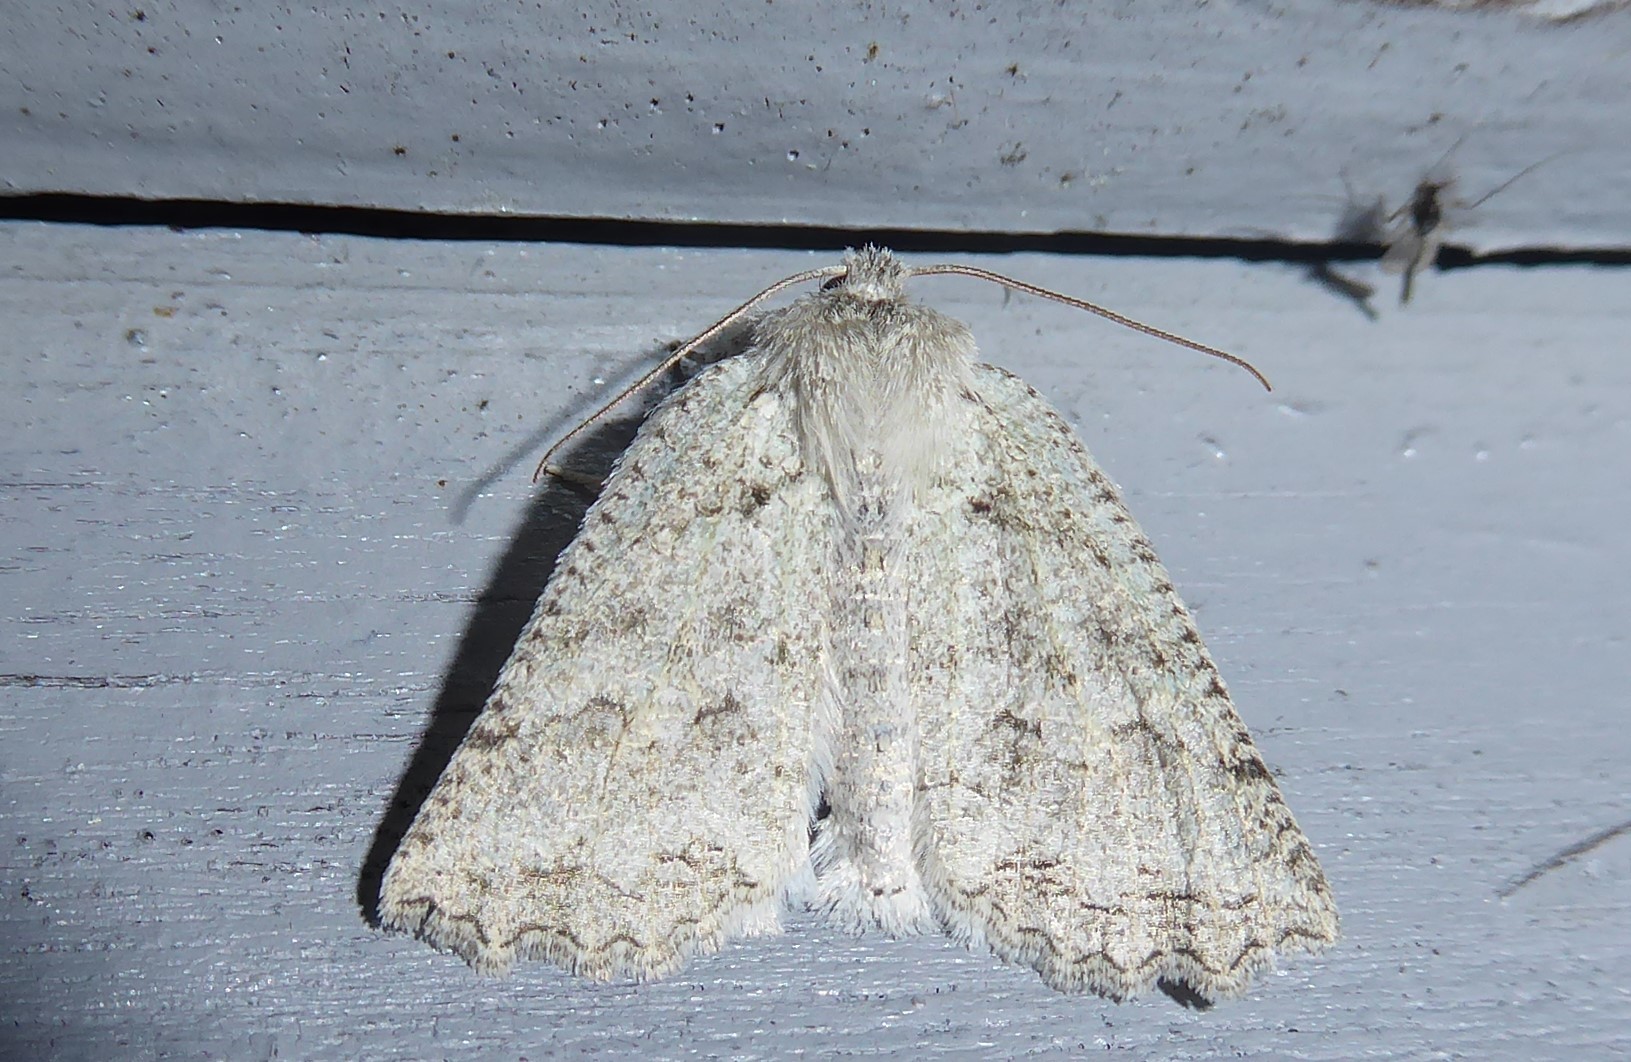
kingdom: Animalia
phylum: Arthropoda
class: Insecta
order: Lepidoptera
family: Geometridae
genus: Declana
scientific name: Declana niveata
